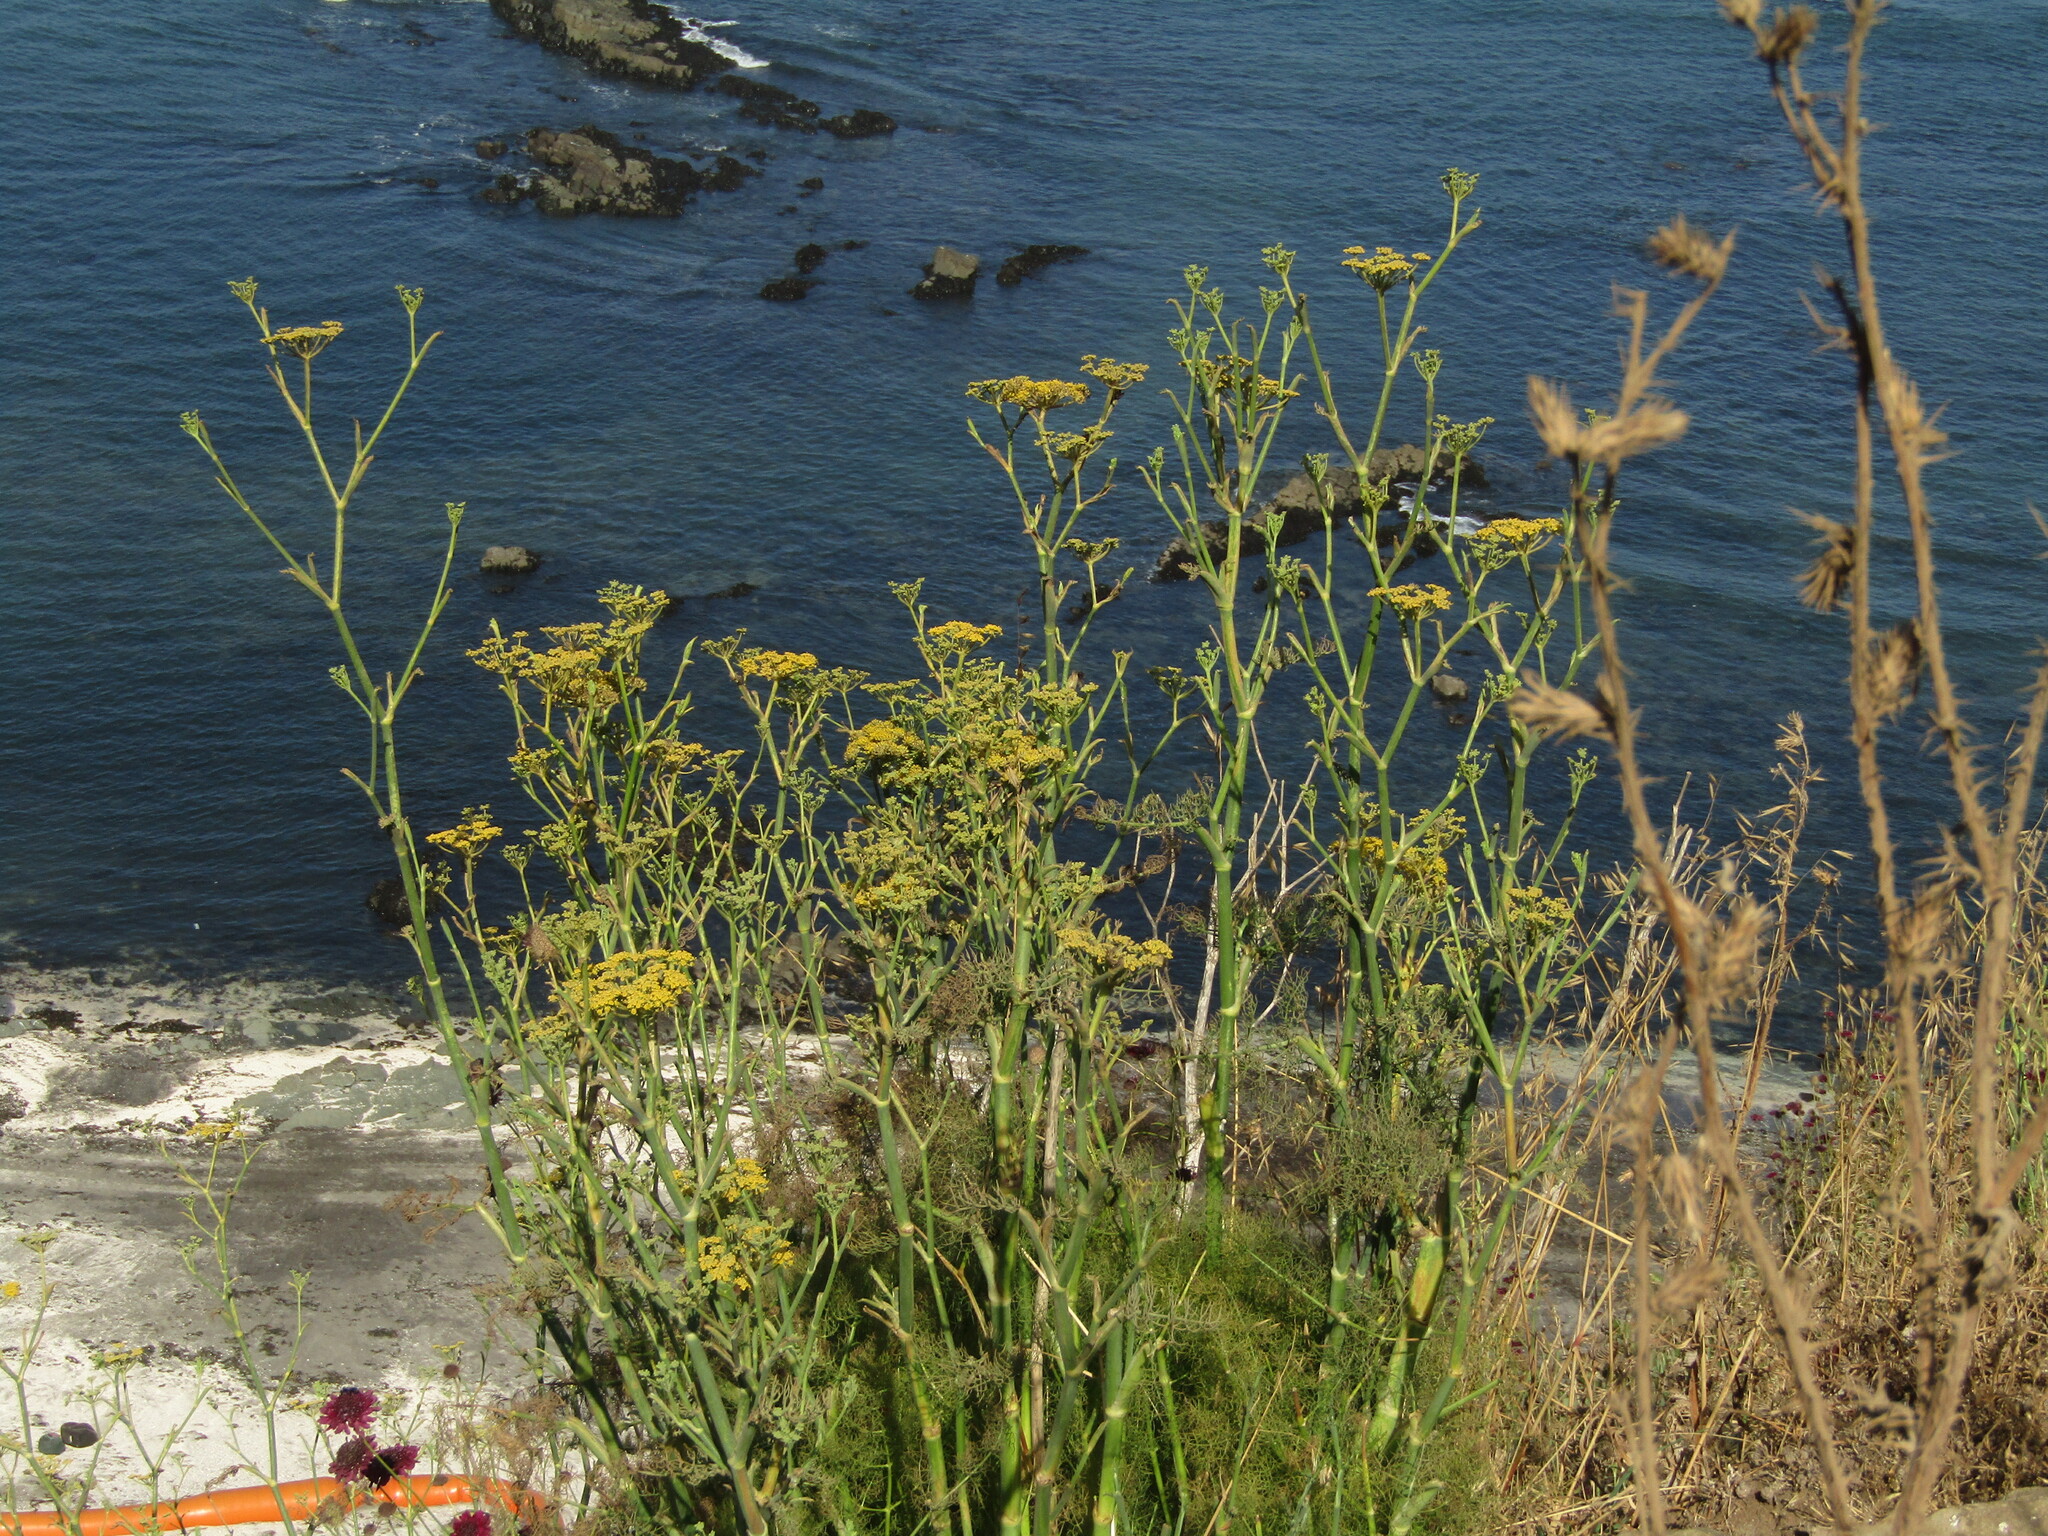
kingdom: Plantae
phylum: Tracheophyta
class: Magnoliopsida
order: Apiales
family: Apiaceae
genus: Foeniculum
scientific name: Foeniculum vulgare
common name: Fennel
